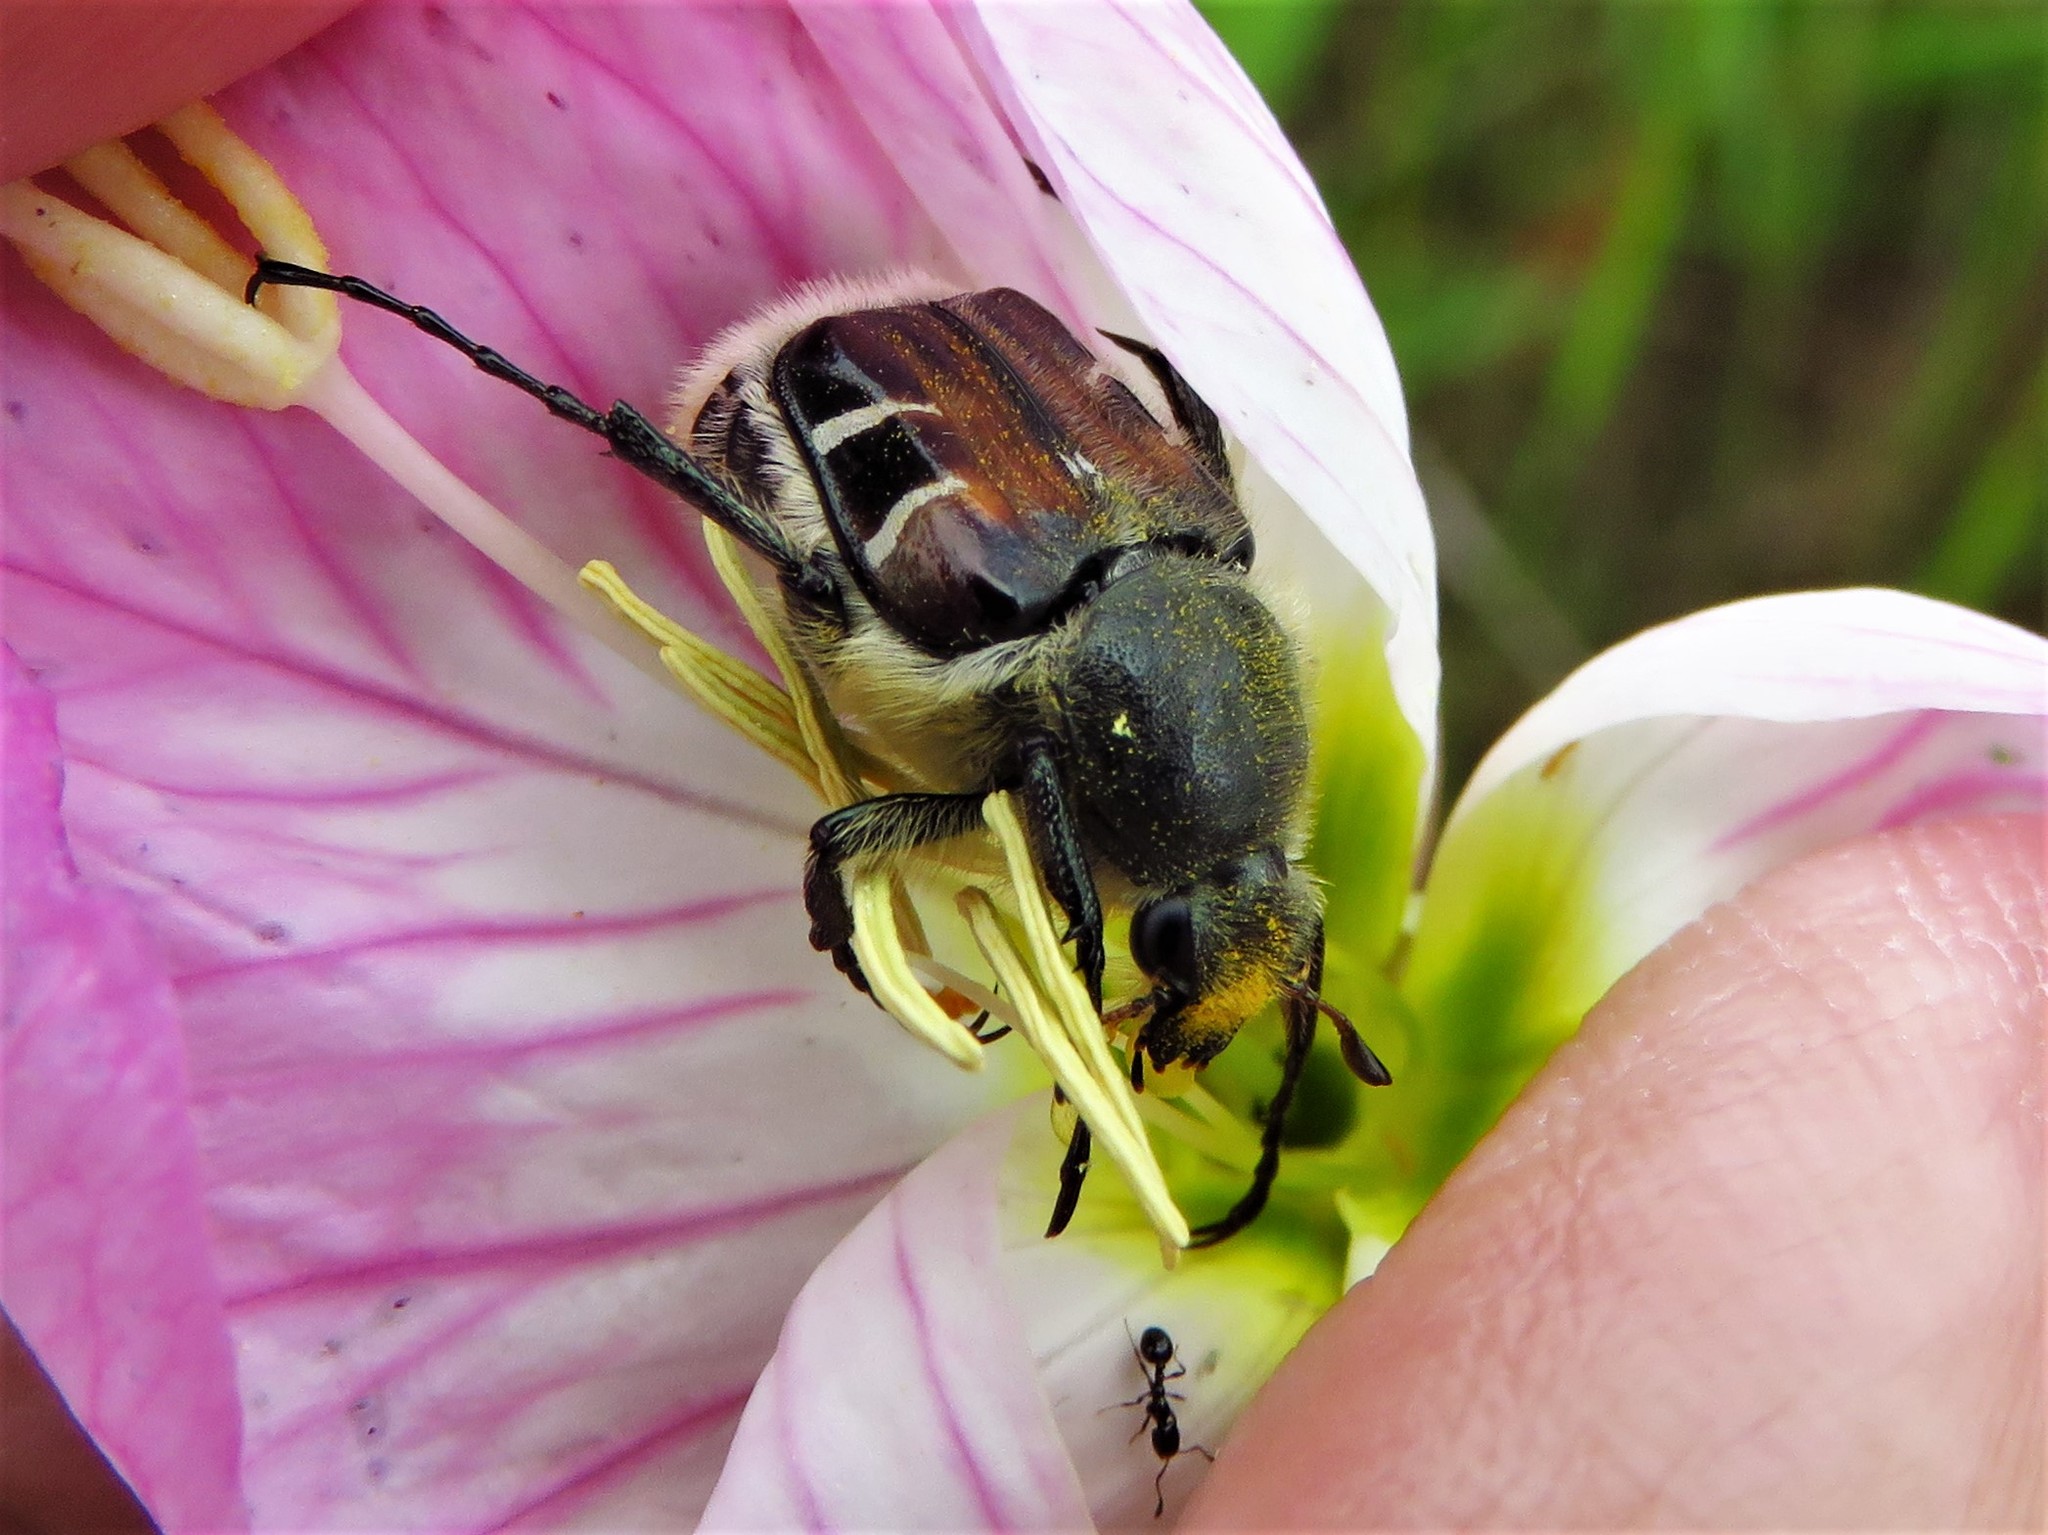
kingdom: Animalia
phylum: Arthropoda
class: Insecta
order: Coleoptera
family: Scarabaeidae
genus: Trichiotinus
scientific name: Trichiotinus piger
